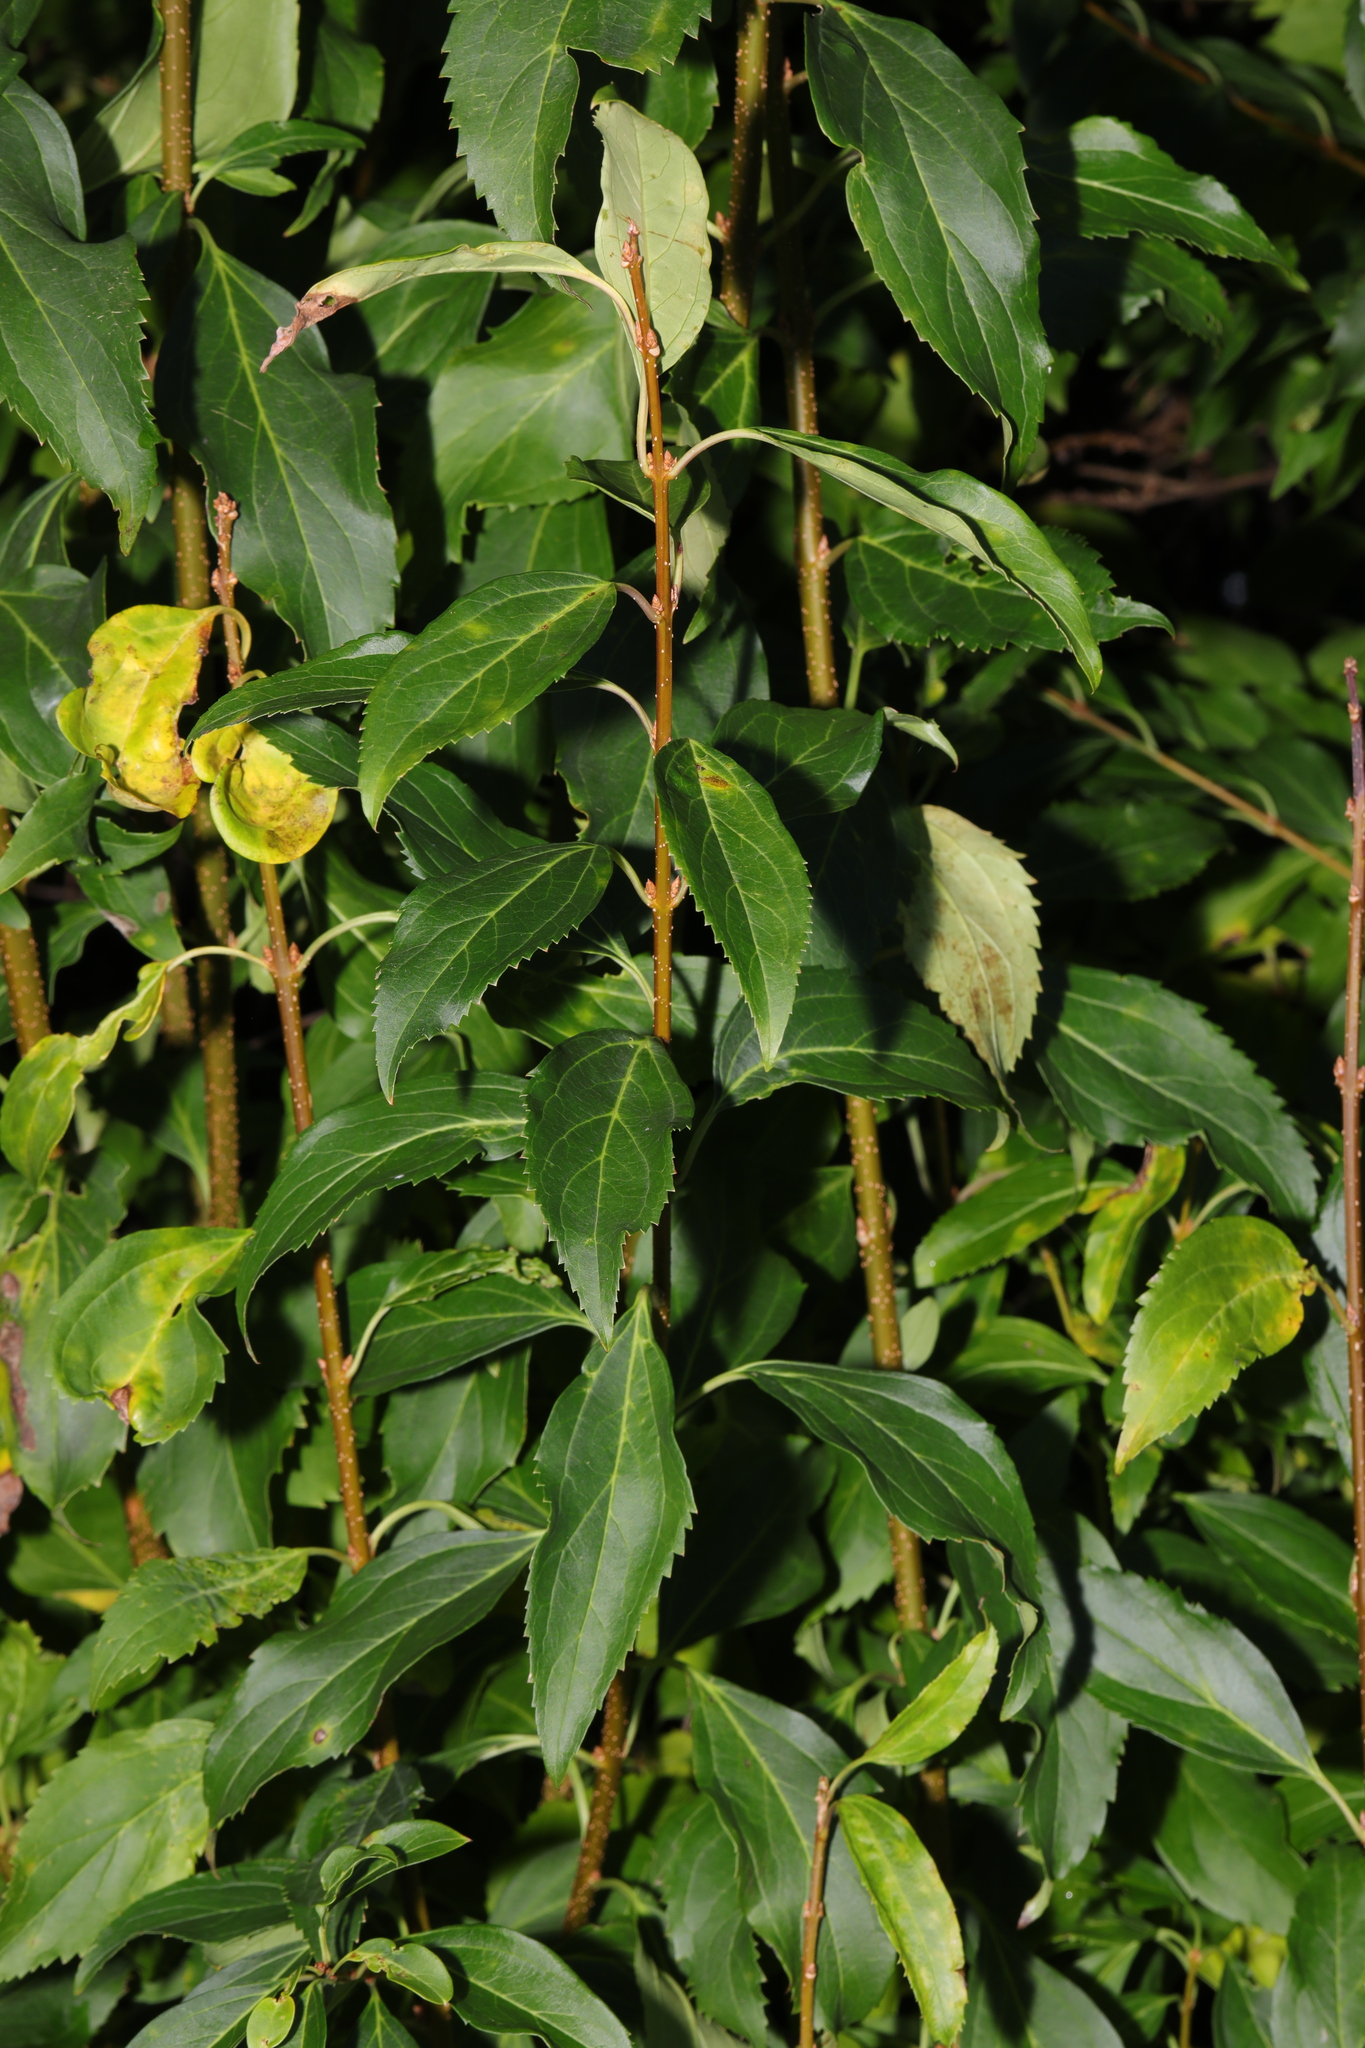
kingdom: Plantae
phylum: Tracheophyta
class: Magnoliopsida
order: Lamiales
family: Oleaceae
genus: Forsythia
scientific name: Forsythia intermedia
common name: Forsythia
